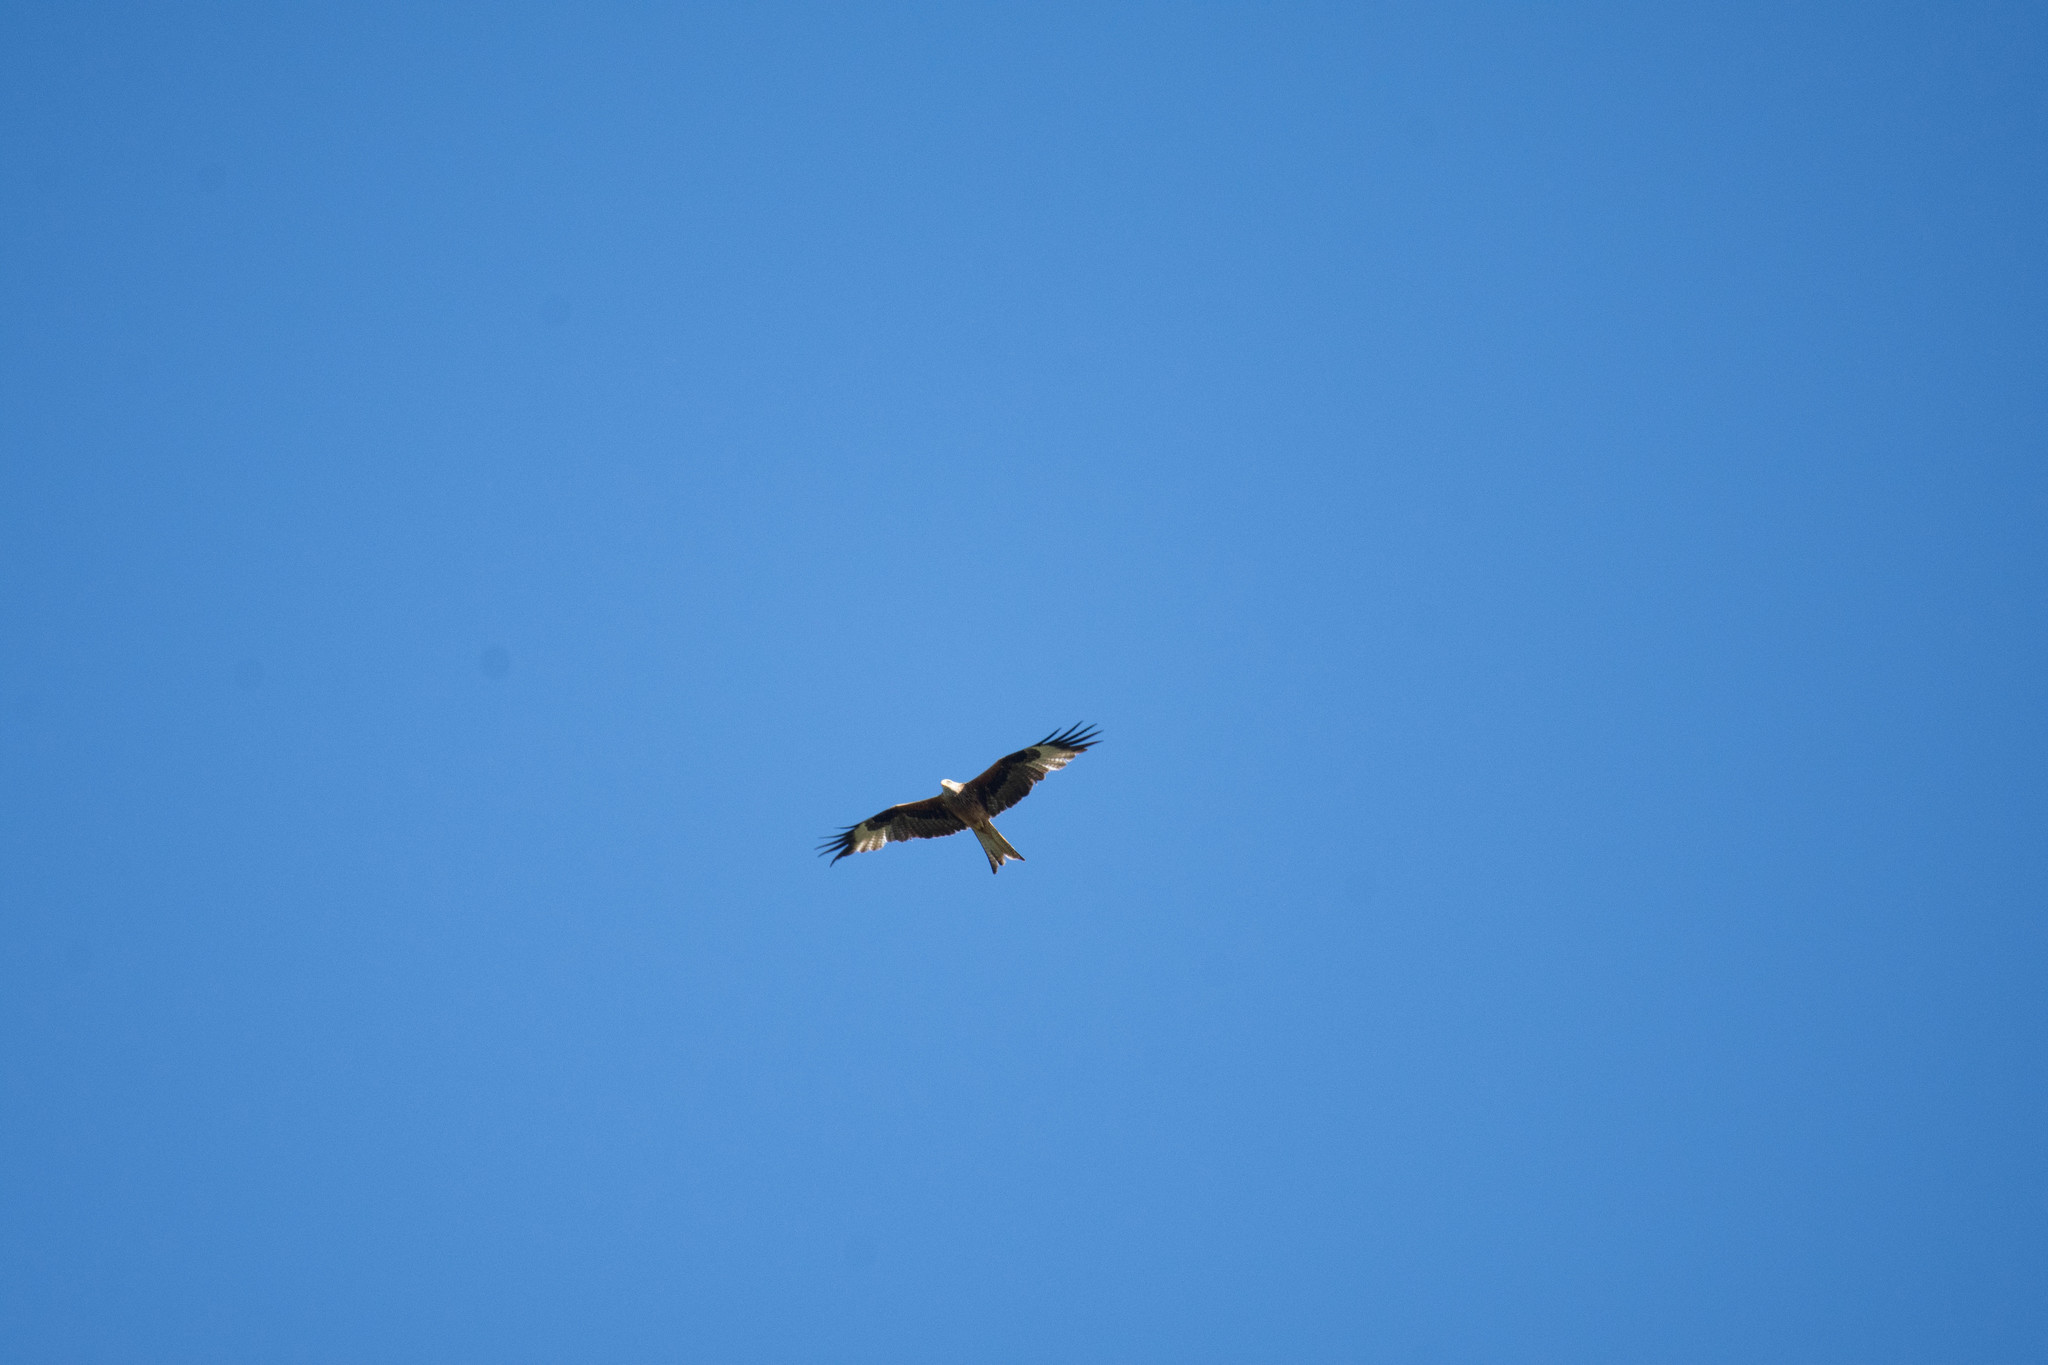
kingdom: Animalia
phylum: Chordata
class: Aves
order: Accipitriformes
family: Accipitridae
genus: Milvus
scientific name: Milvus milvus
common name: Red kite
